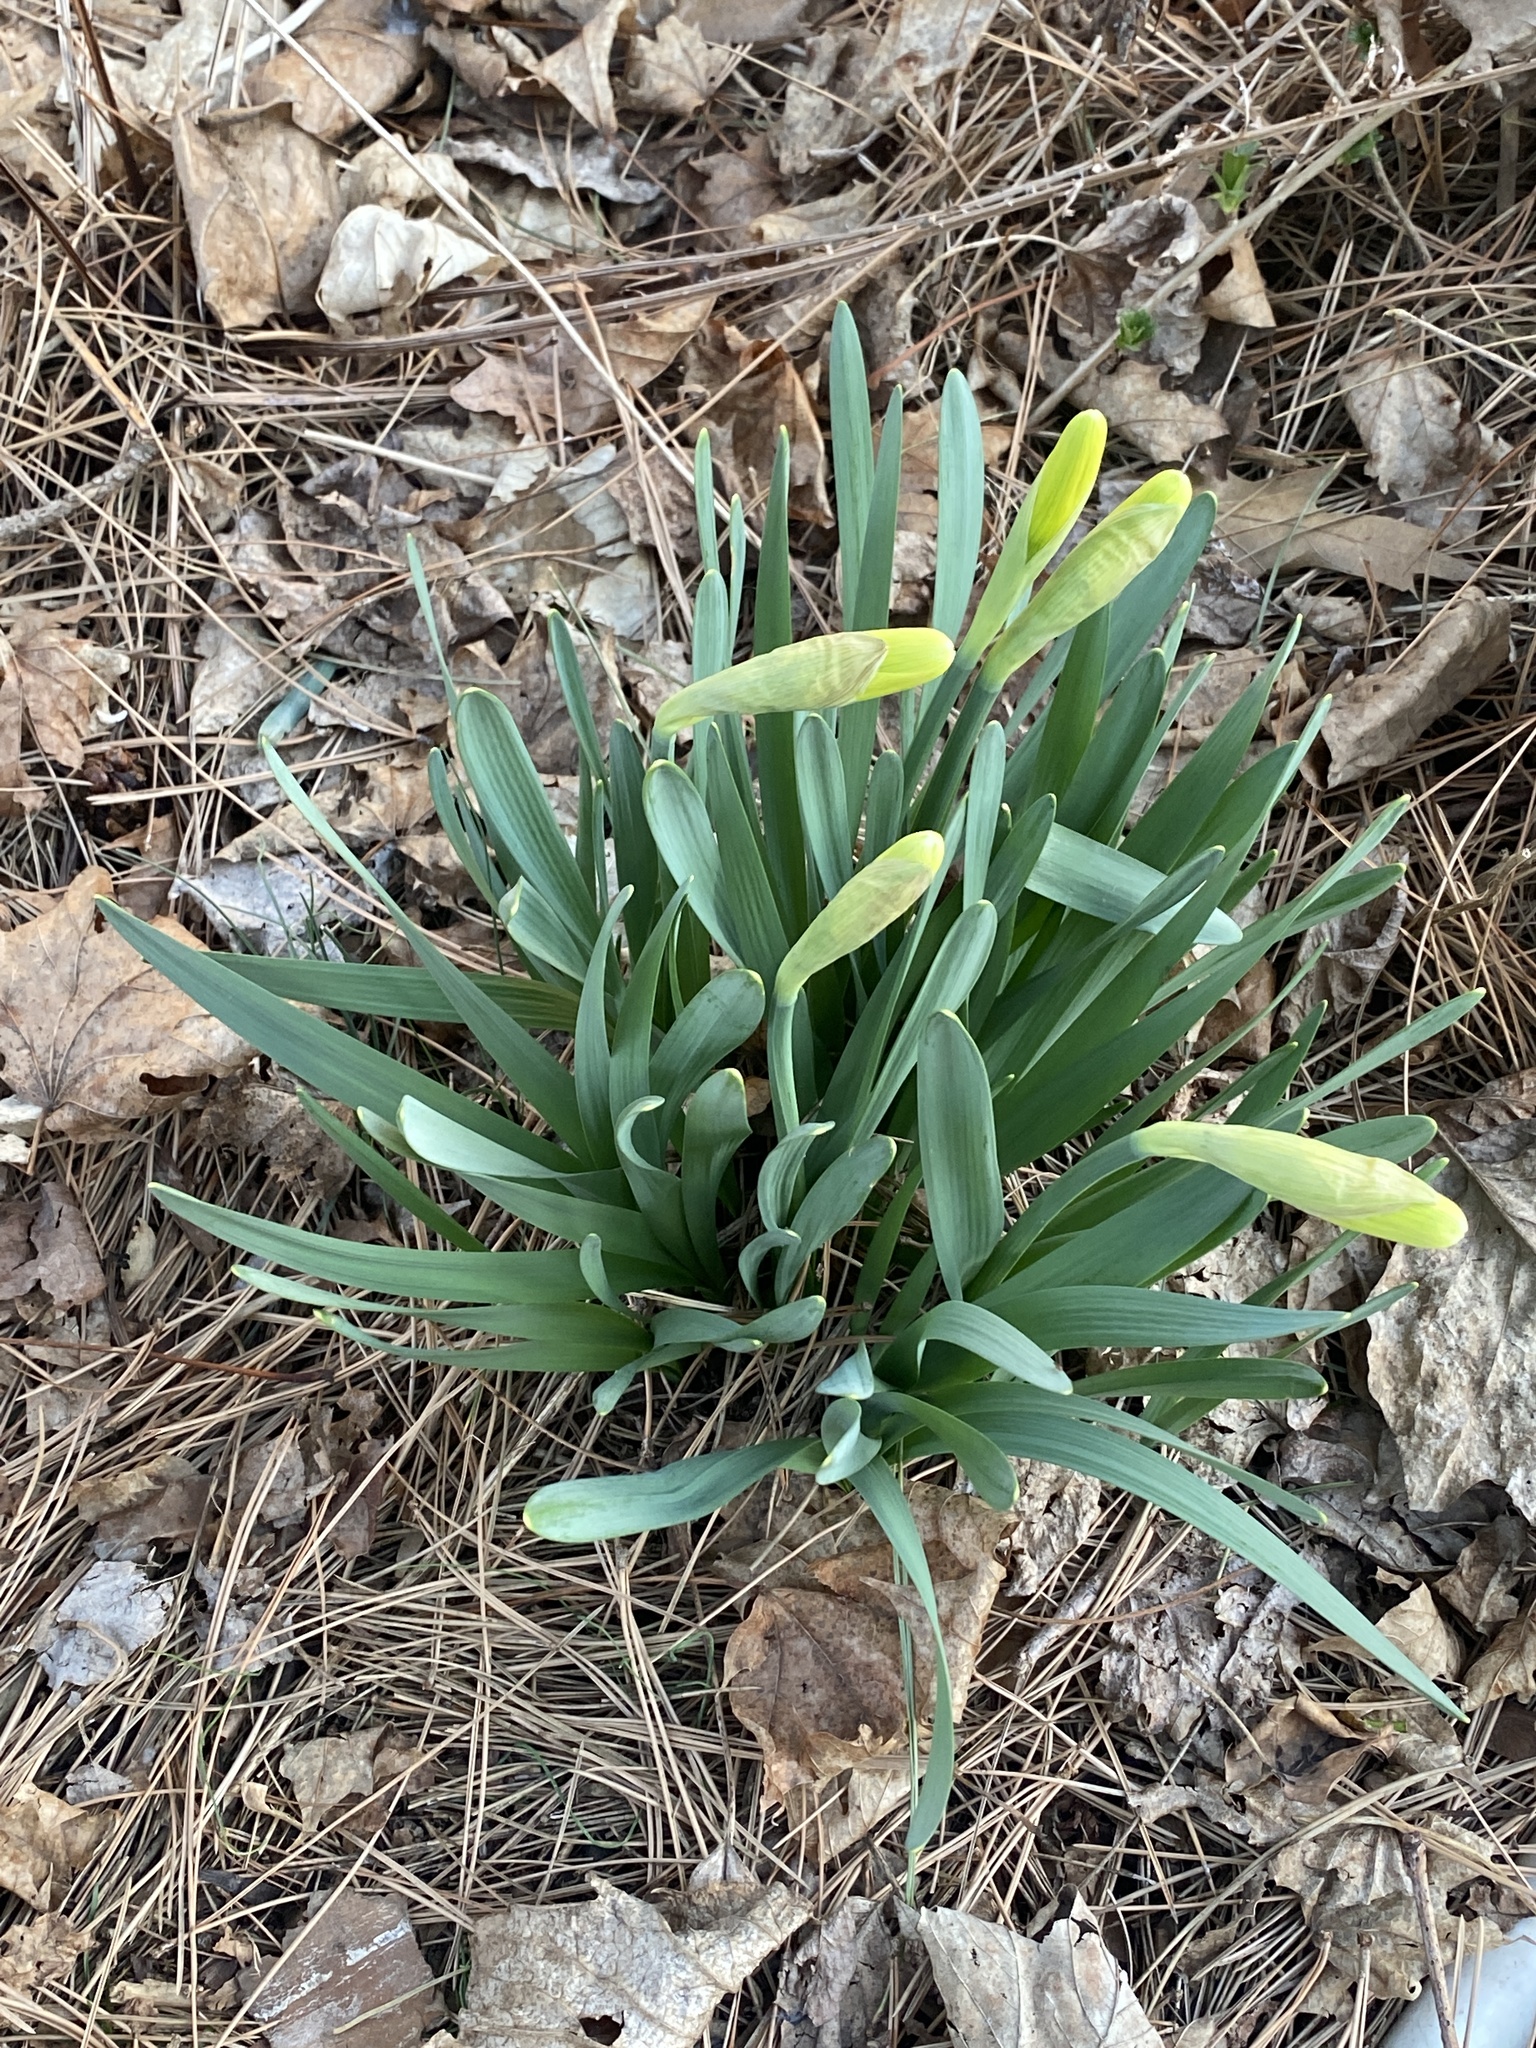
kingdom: Plantae
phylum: Tracheophyta
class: Liliopsida
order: Asparagales
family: Amaryllidaceae
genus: Narcissus
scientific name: Narcissus
